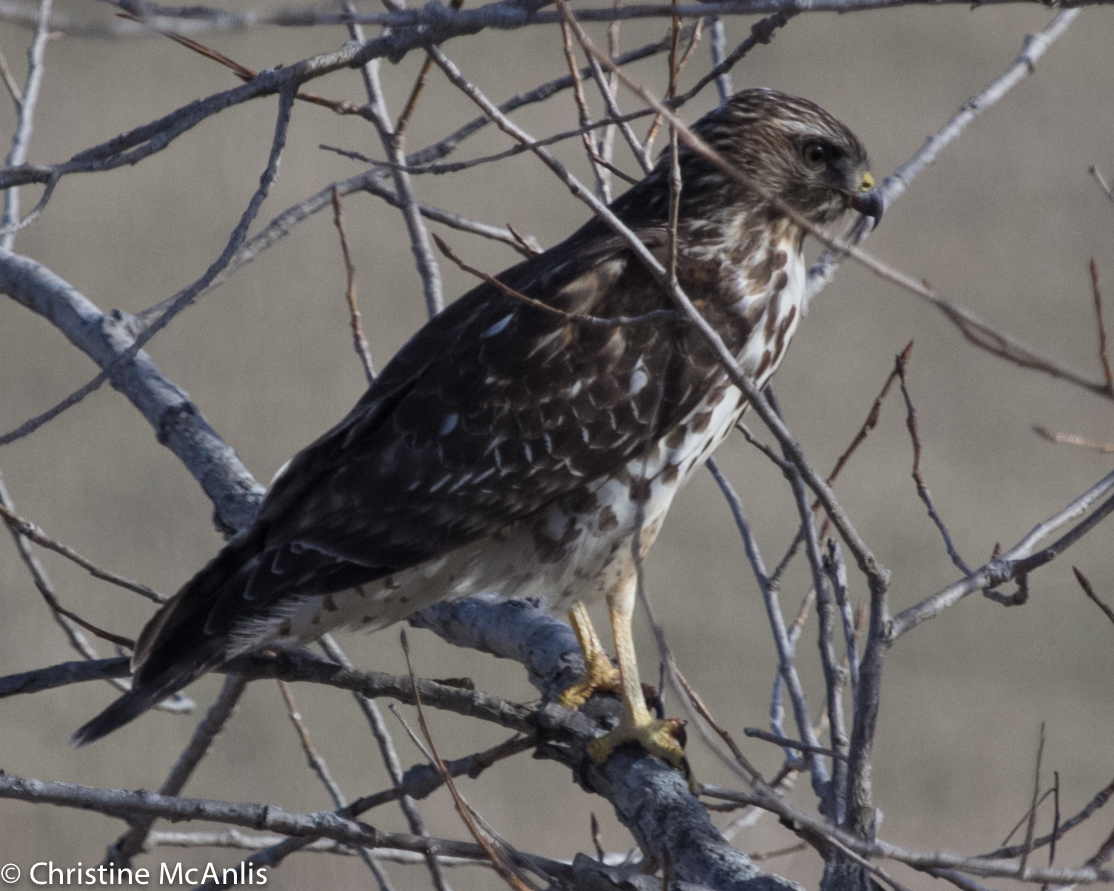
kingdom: Animalia
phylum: Chordata
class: Aves
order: Accipitriformes
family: Accipitridae
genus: Buteo
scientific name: Buteo lineatus
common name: Red-shouldered hawk
